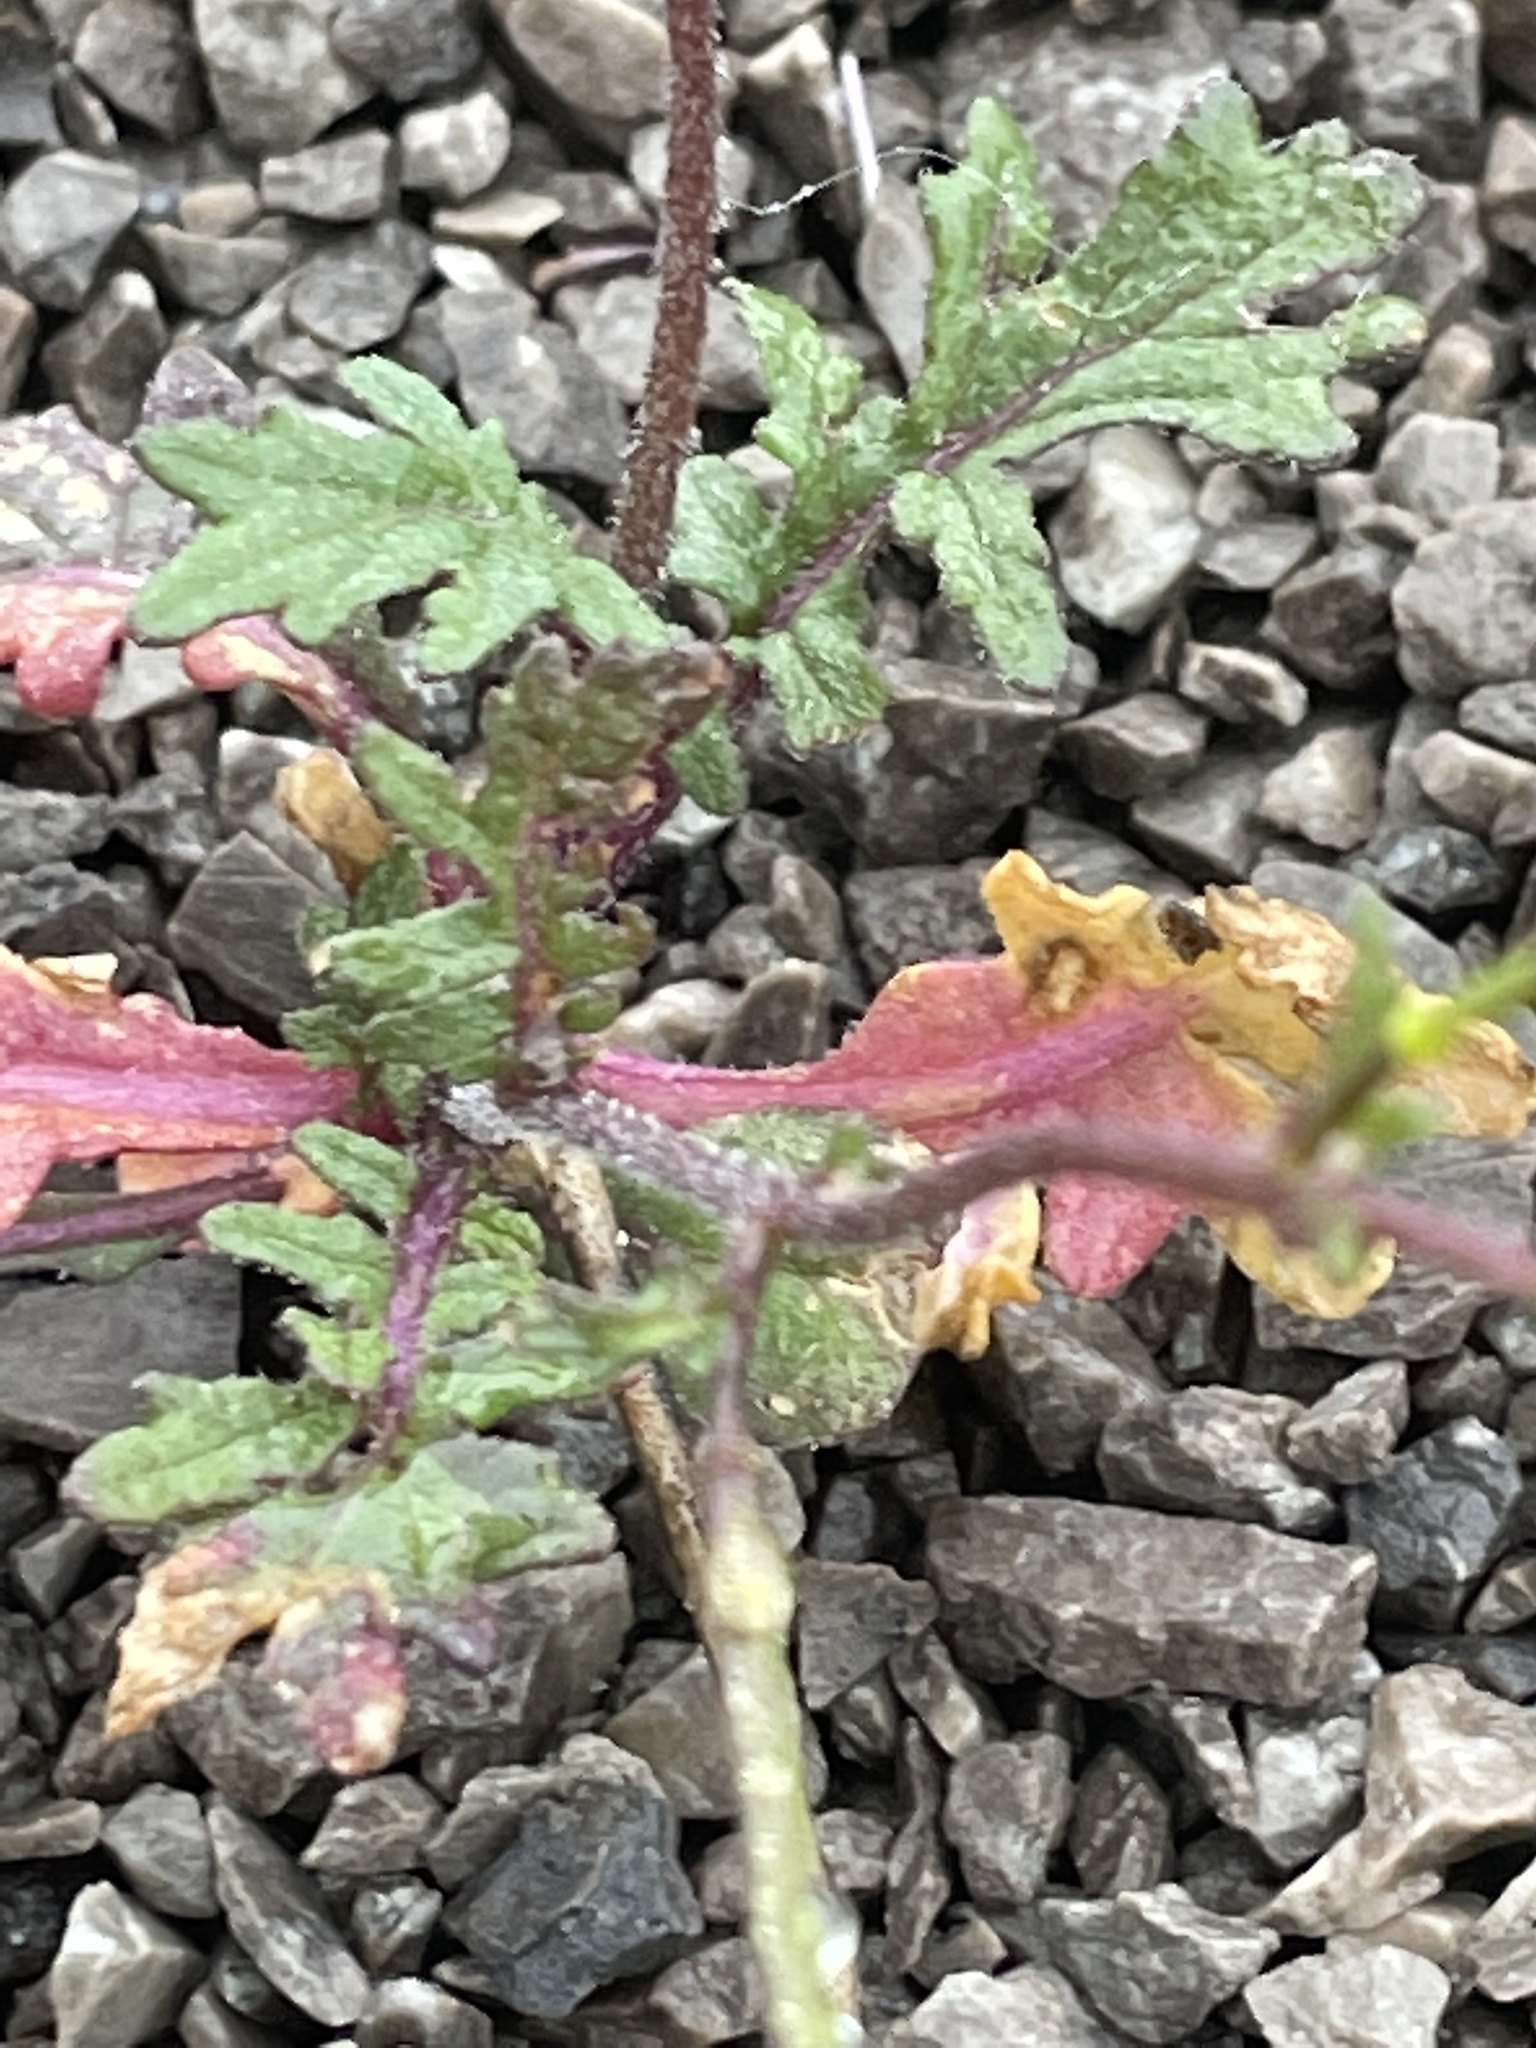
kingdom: Plantae
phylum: Tracheophyta
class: Magnoliopsida
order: Brassicales
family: Brassicaceae
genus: Erucastrum
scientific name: Erucastrum gallicum
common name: Hairy rocket
